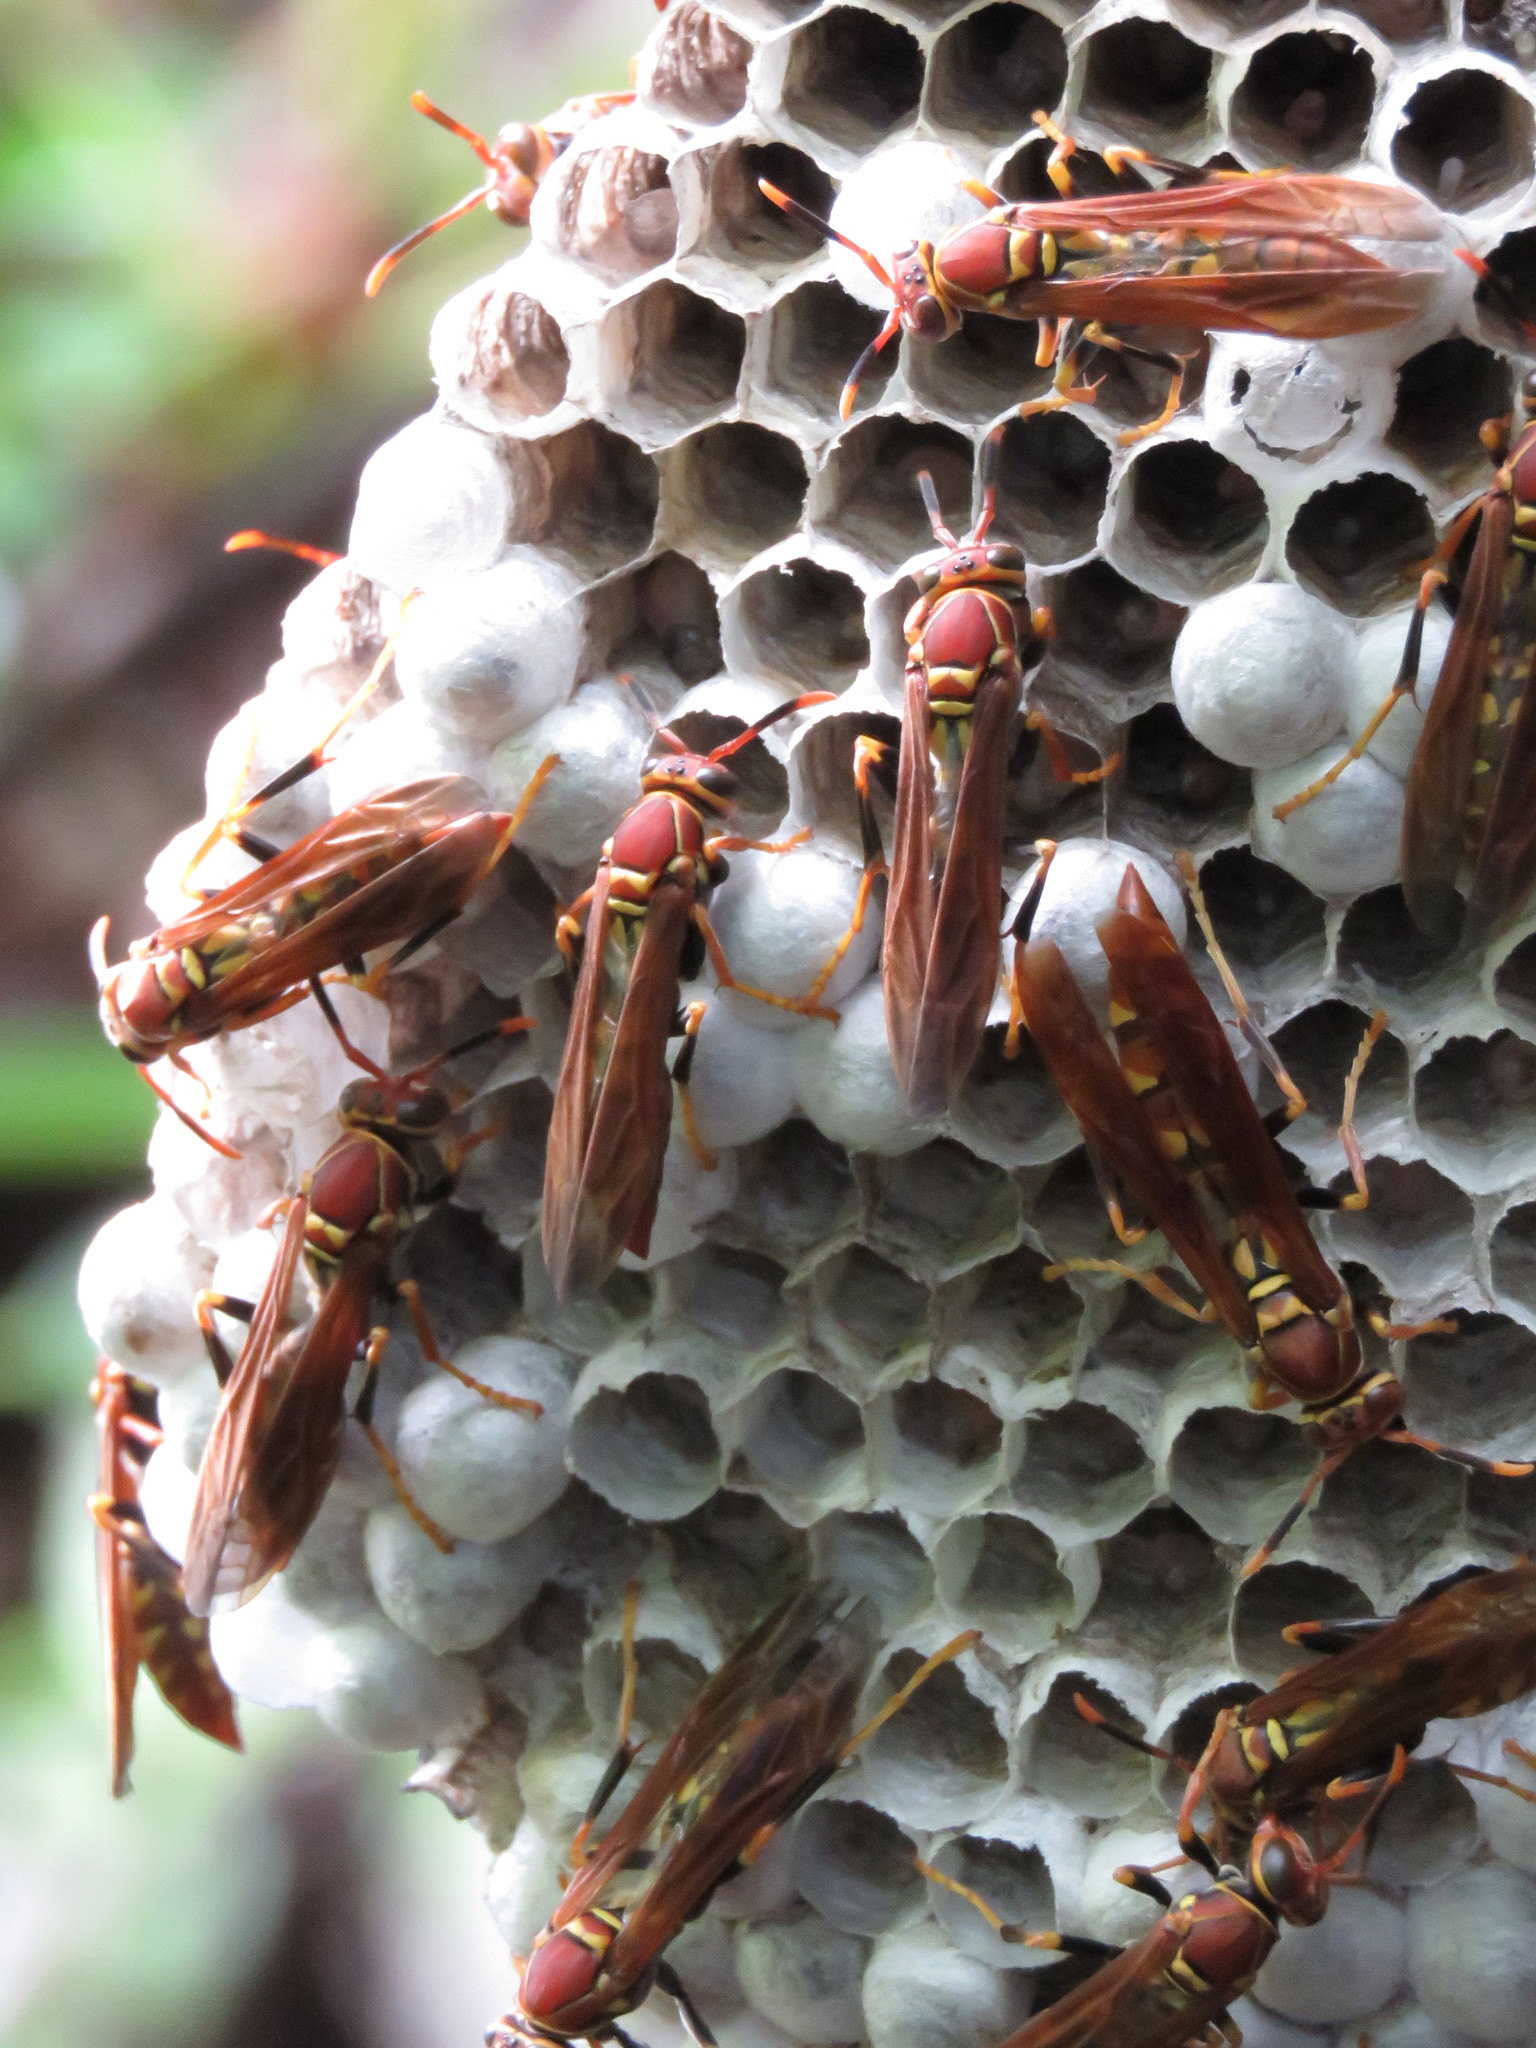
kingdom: Animalia
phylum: Arthropoda
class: Insecta
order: Hymenoptera
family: Eumenidae
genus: Polistes
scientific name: Polistes versicolor
